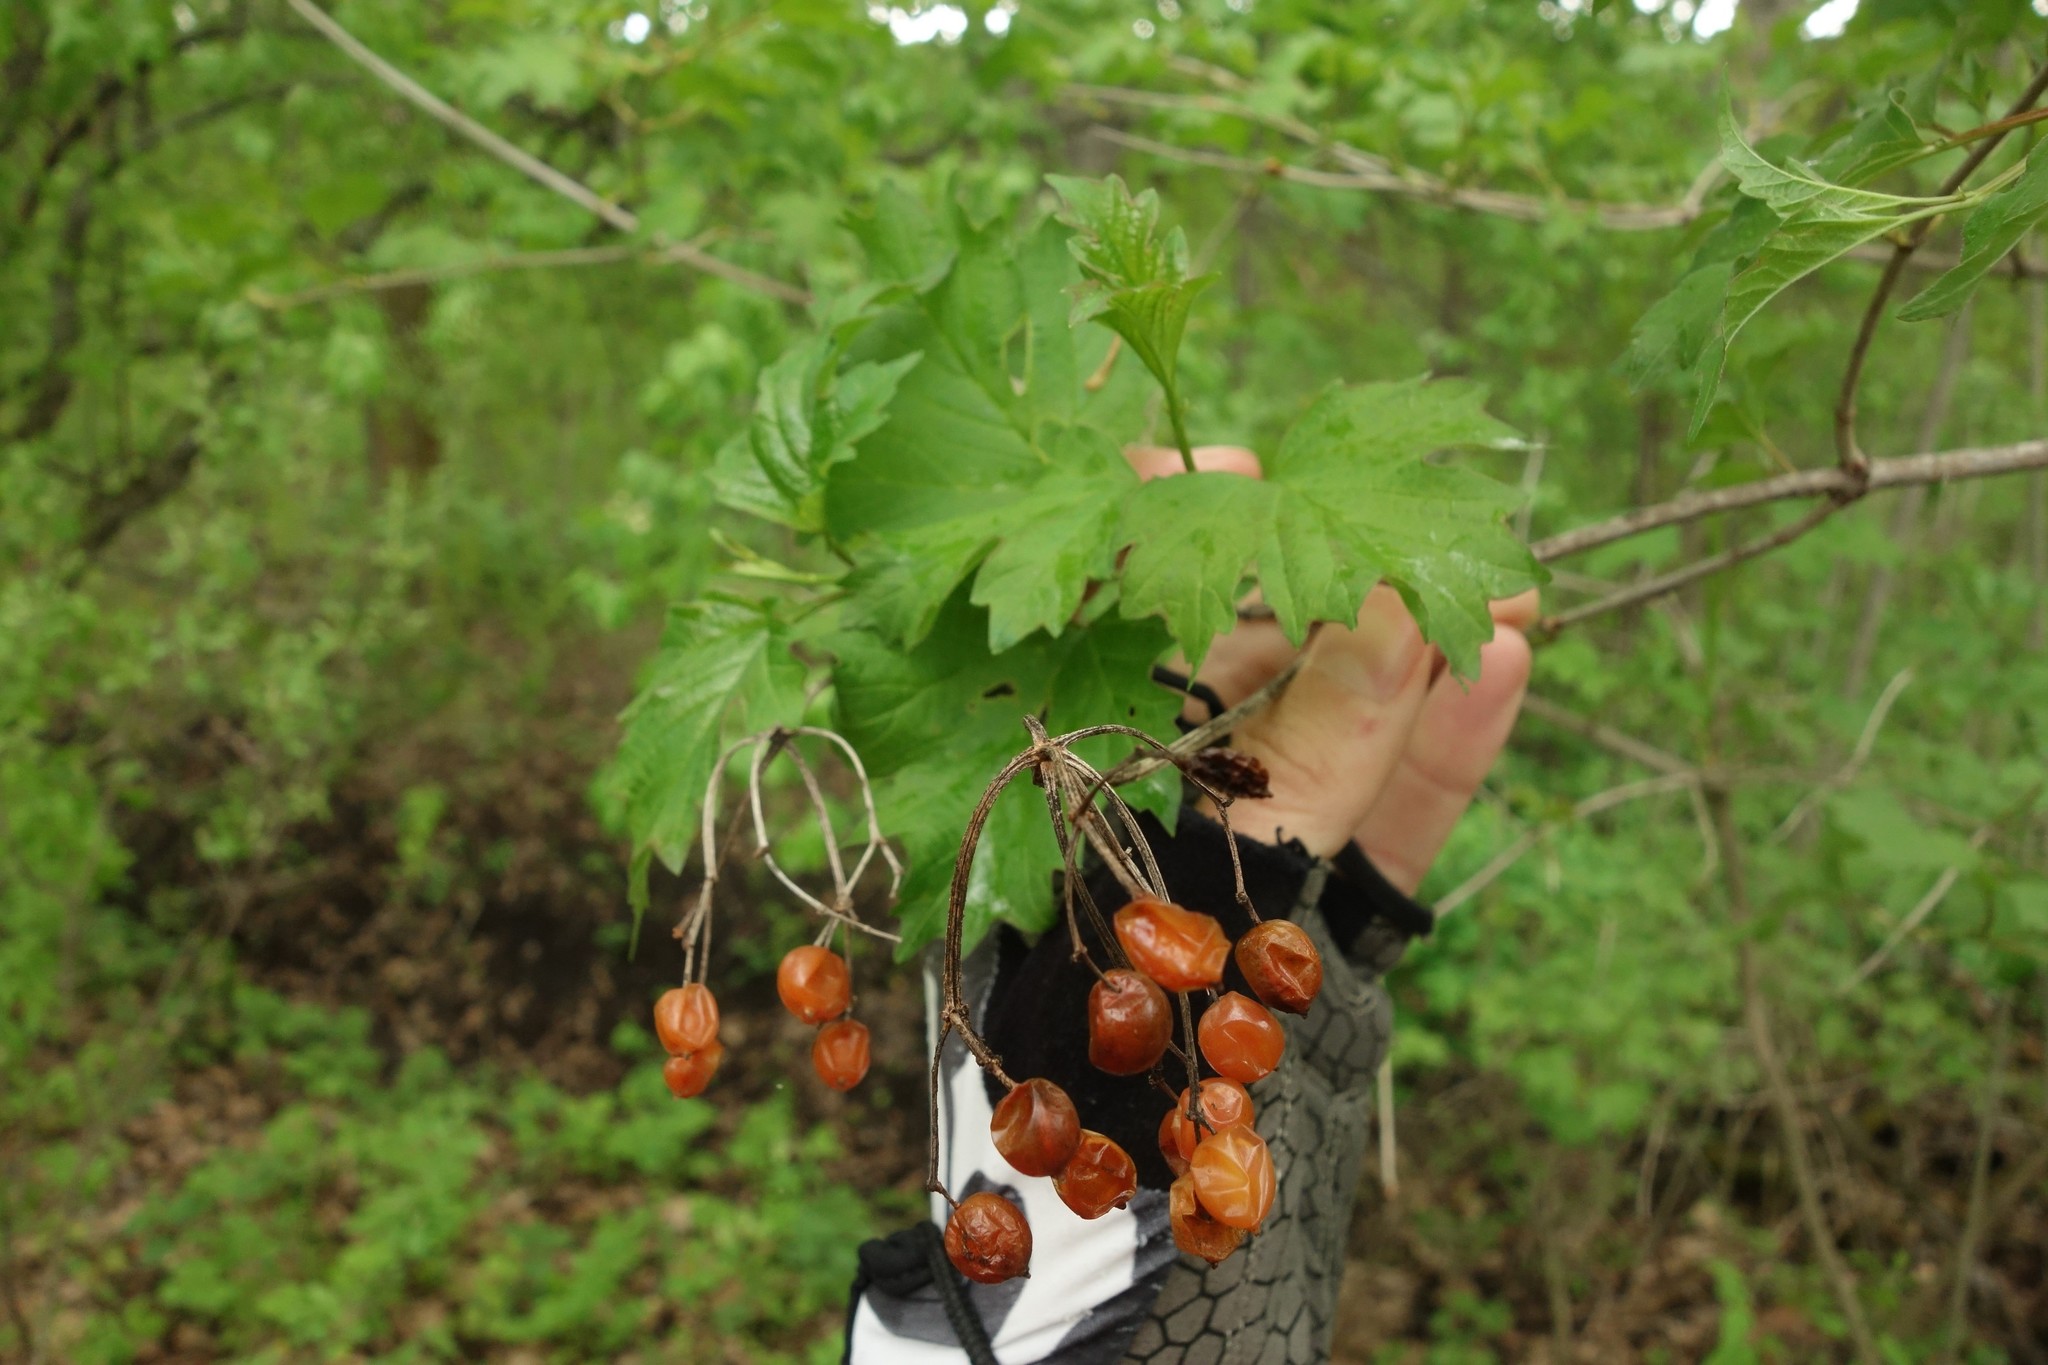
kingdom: Plantae
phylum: Tracheophyta
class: Magnoliopsida
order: Dipsacales
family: Viburnaceae
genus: Viburnum
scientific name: Viburnum opulus
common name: Guelder-rose
